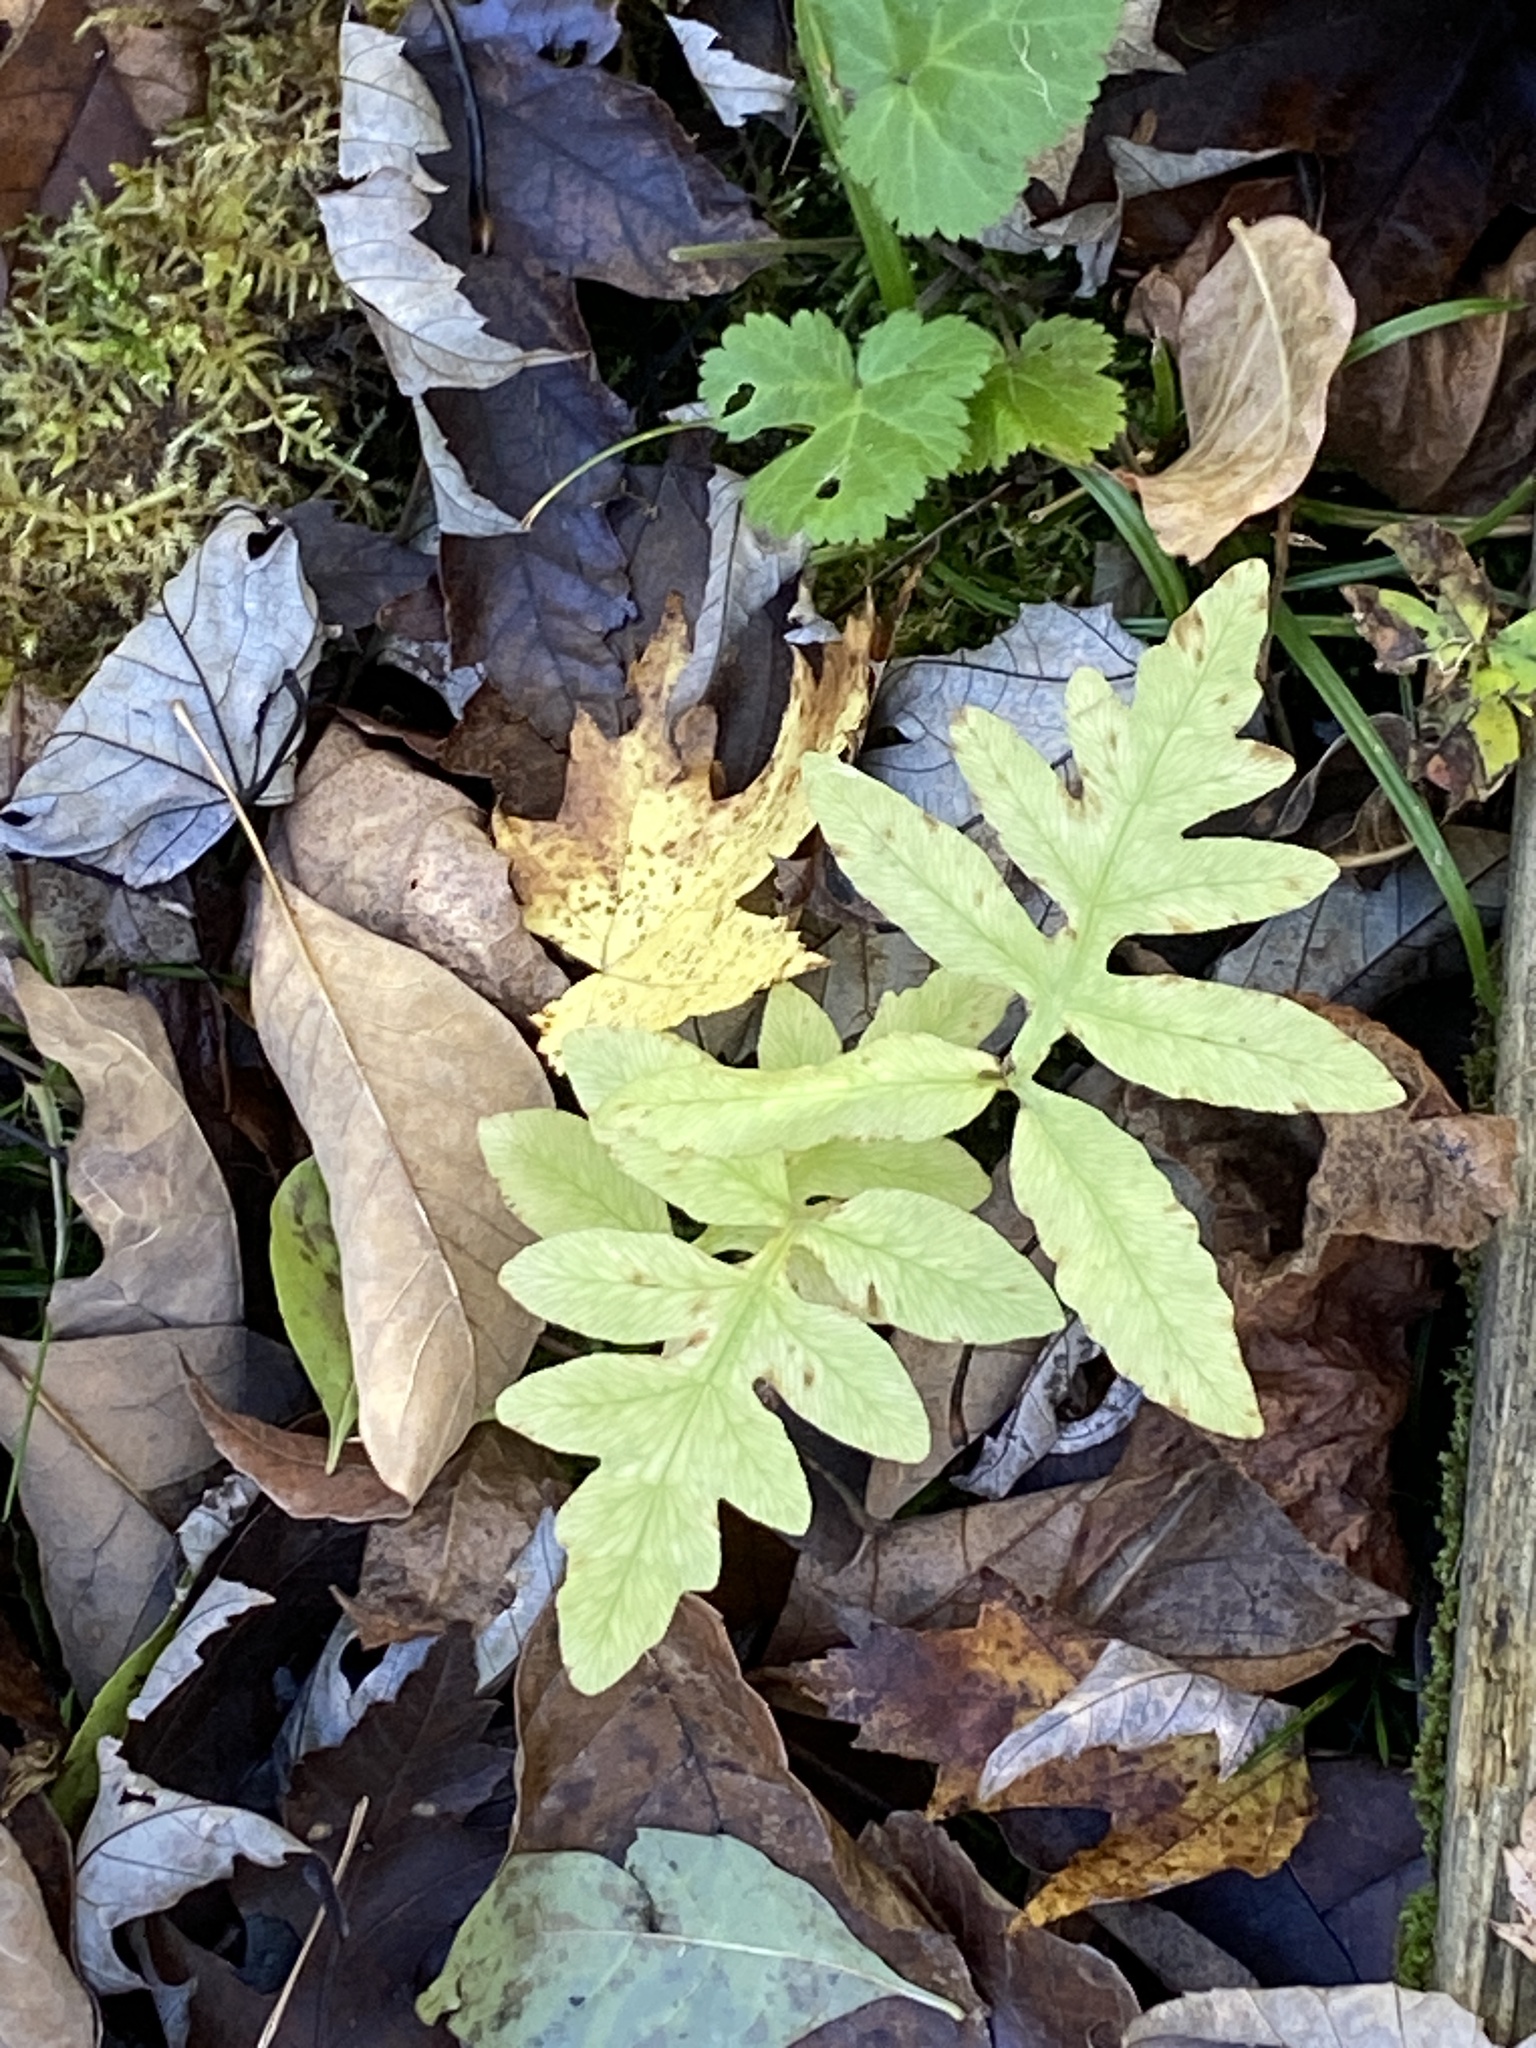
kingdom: Plantae
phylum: Tracheophyta
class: Polypodiopsida
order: Polypodiales
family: Onocleaceae
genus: Onoclea
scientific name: Onoclea sensibilis
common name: Sensitive fern
